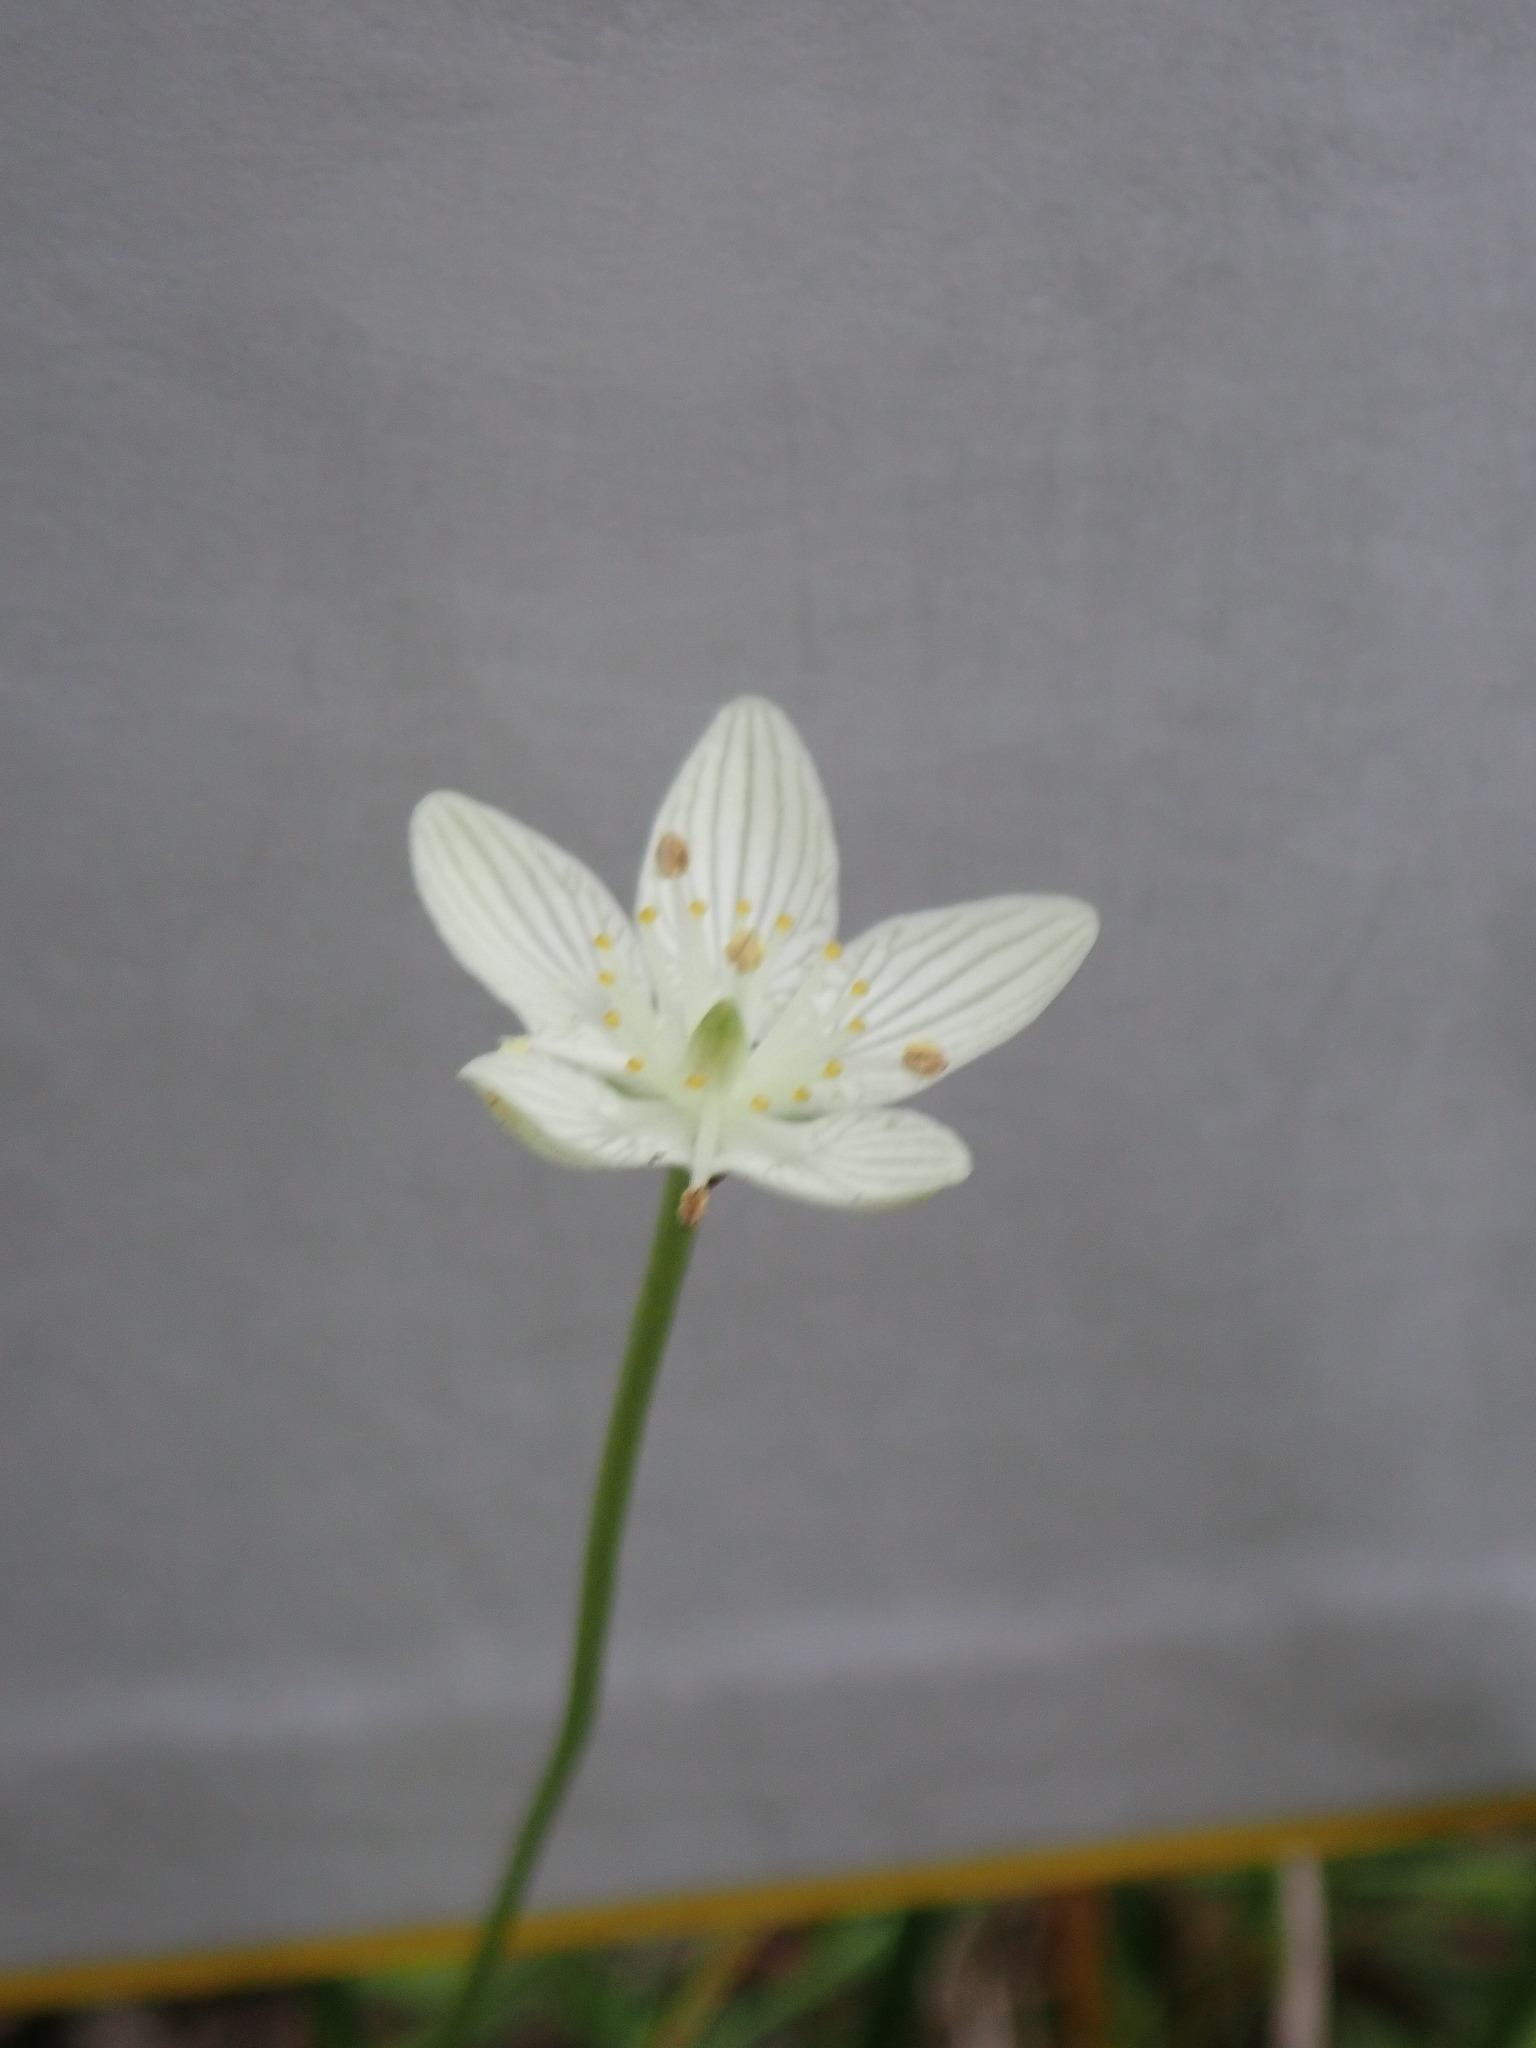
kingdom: Plantae
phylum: Tracheophyta
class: Magnoliopsida
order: Celastrales
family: Parnassiaceae
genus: Parnassia
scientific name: Parnassia glauca
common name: American grass-of-parnassus
